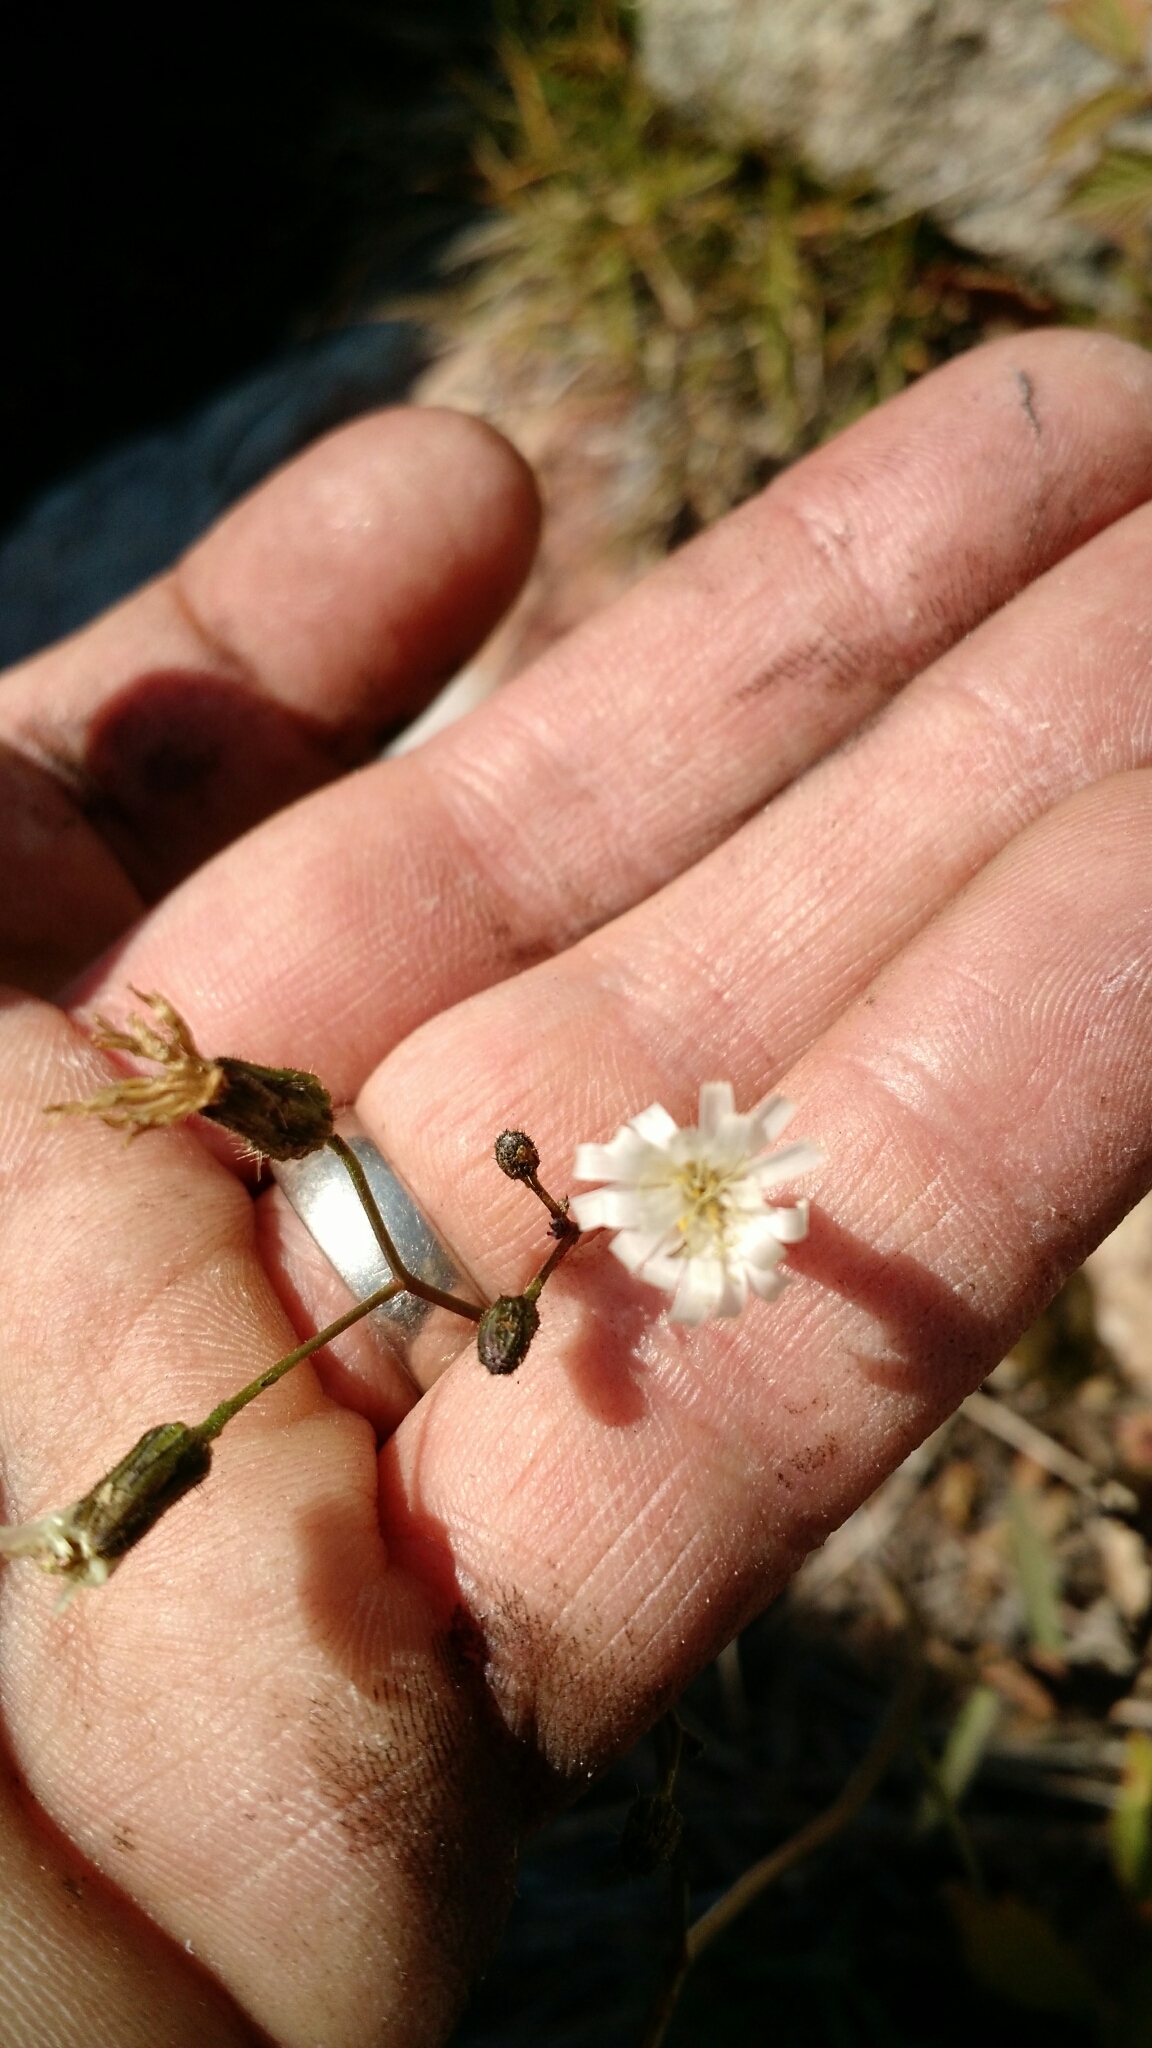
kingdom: Plantae
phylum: Tracheophyta
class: Magnoliopsida
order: Asterales
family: Asteraceae
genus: Hieracium
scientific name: Hieracium albiflorum
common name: White hawkweed
